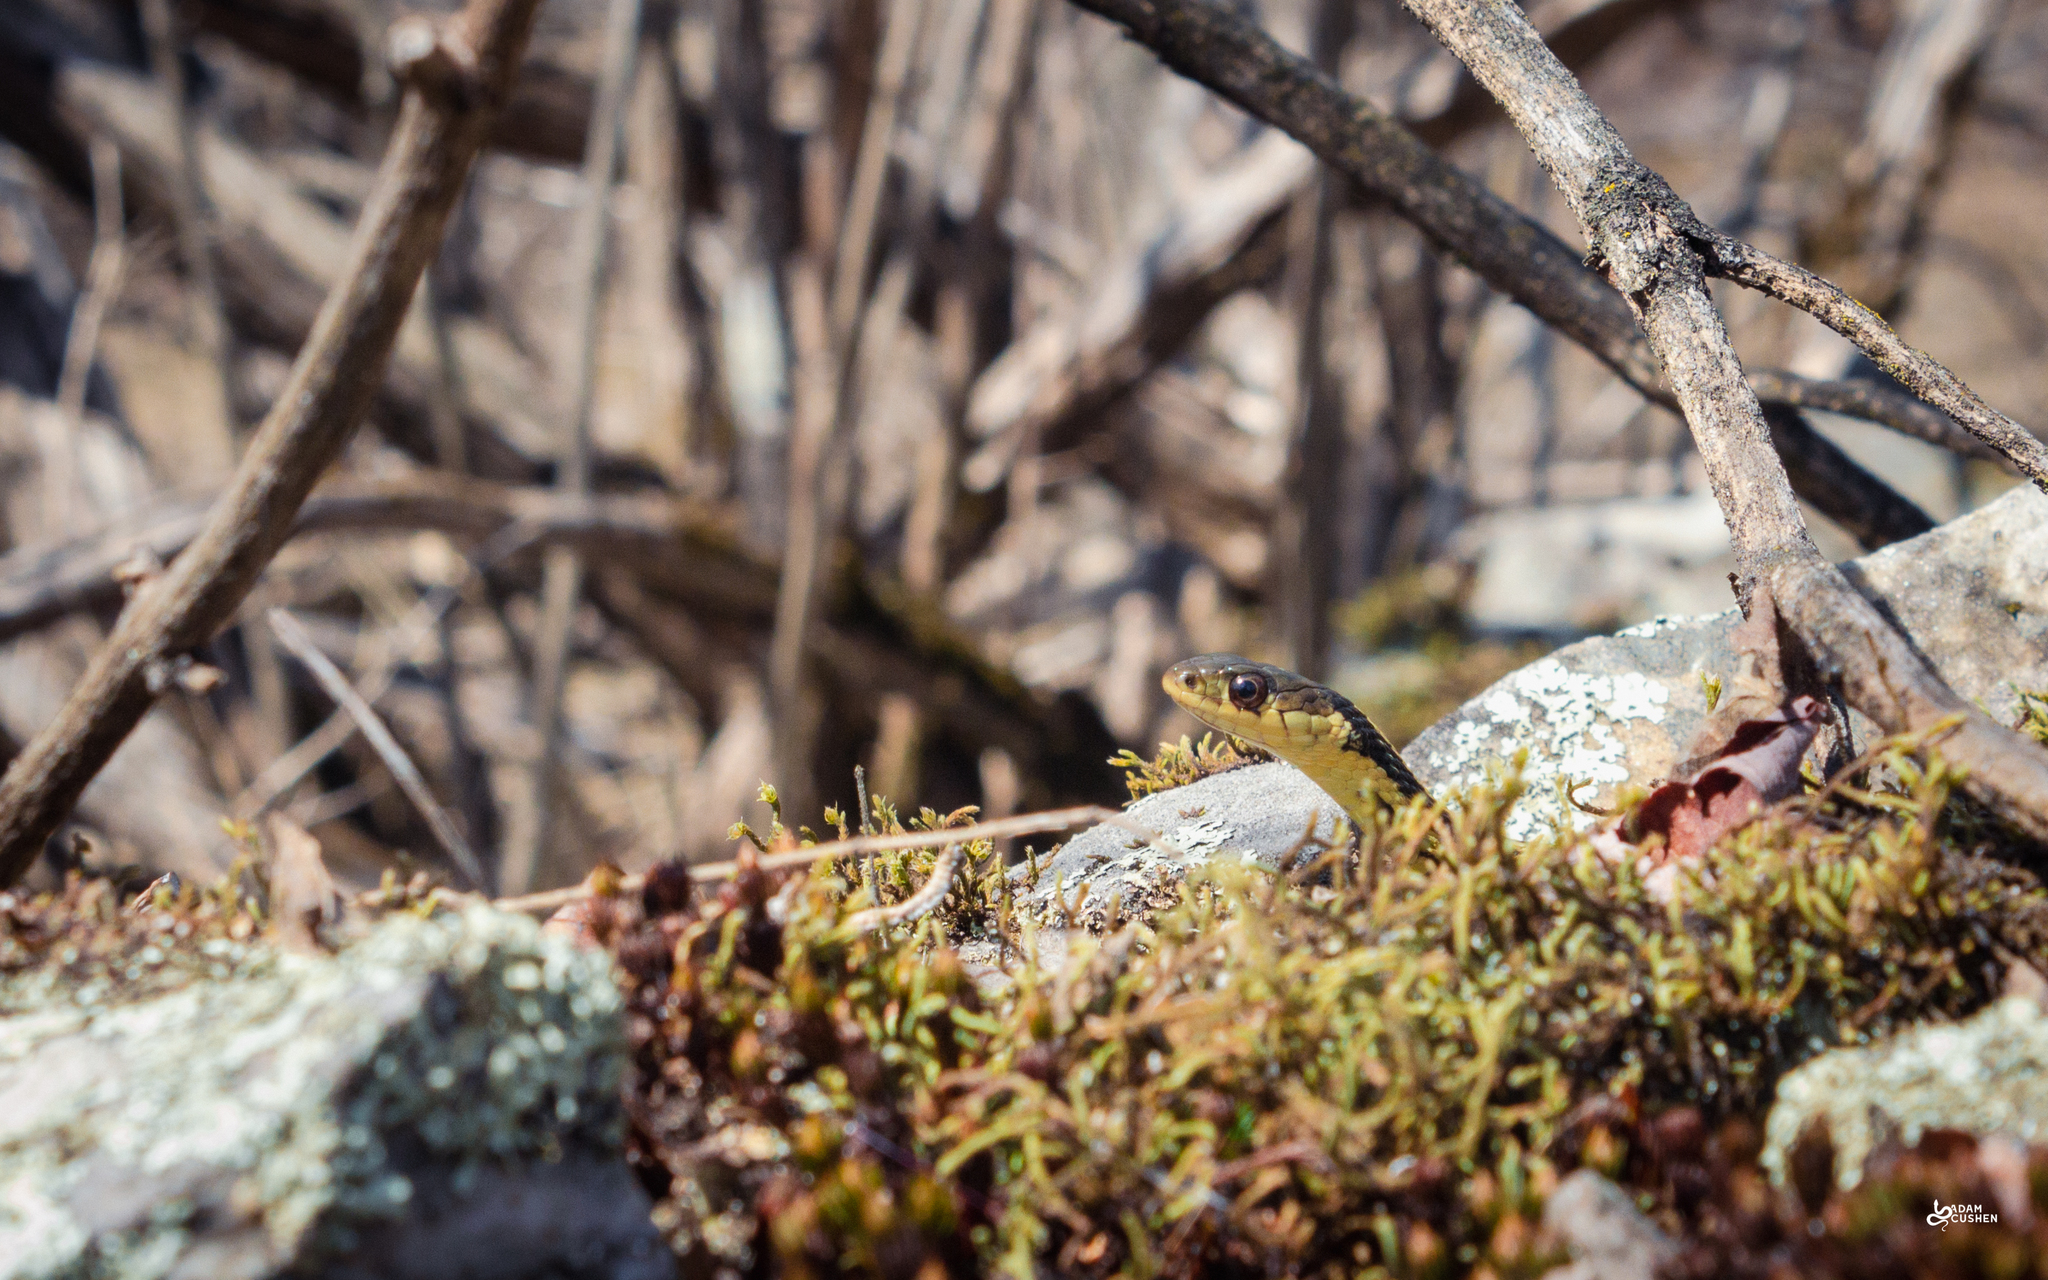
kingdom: Animalia
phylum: Chordata
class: Squamata
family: Colubridae
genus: Thamnophis
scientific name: Thamnophis sirtalis
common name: Common garter snake
